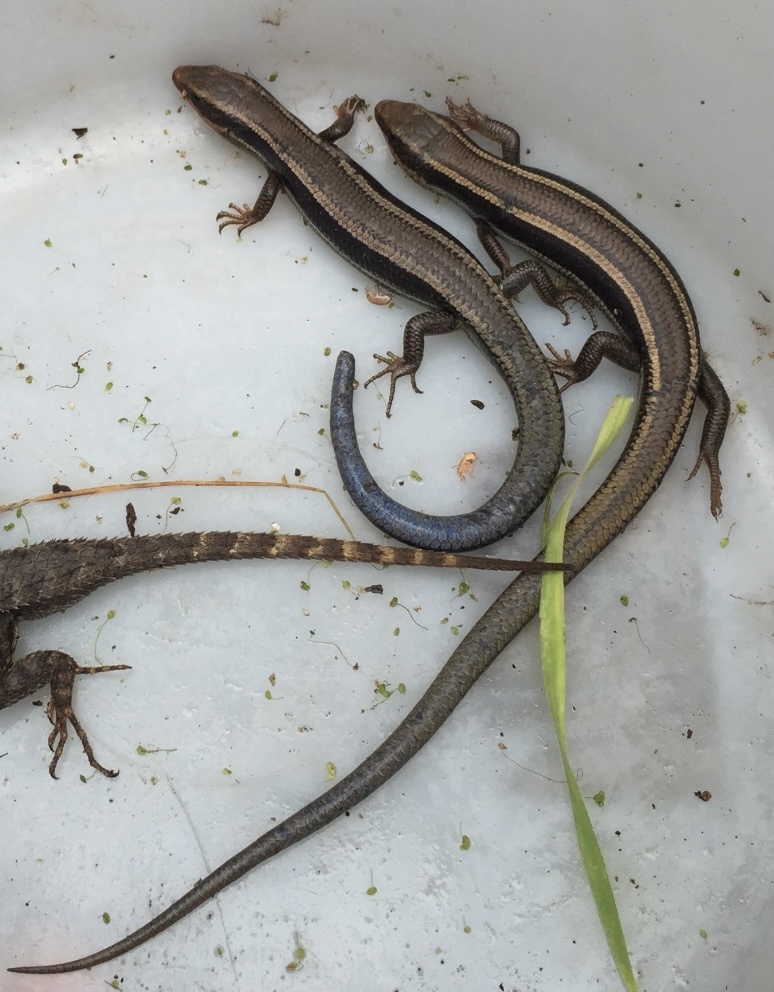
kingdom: Animalia
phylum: Chordata
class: Squamata
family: Scincidae
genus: Plestiodon
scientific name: Plestiodon skiltonianus
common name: Coronado island skink [interparietalis]
